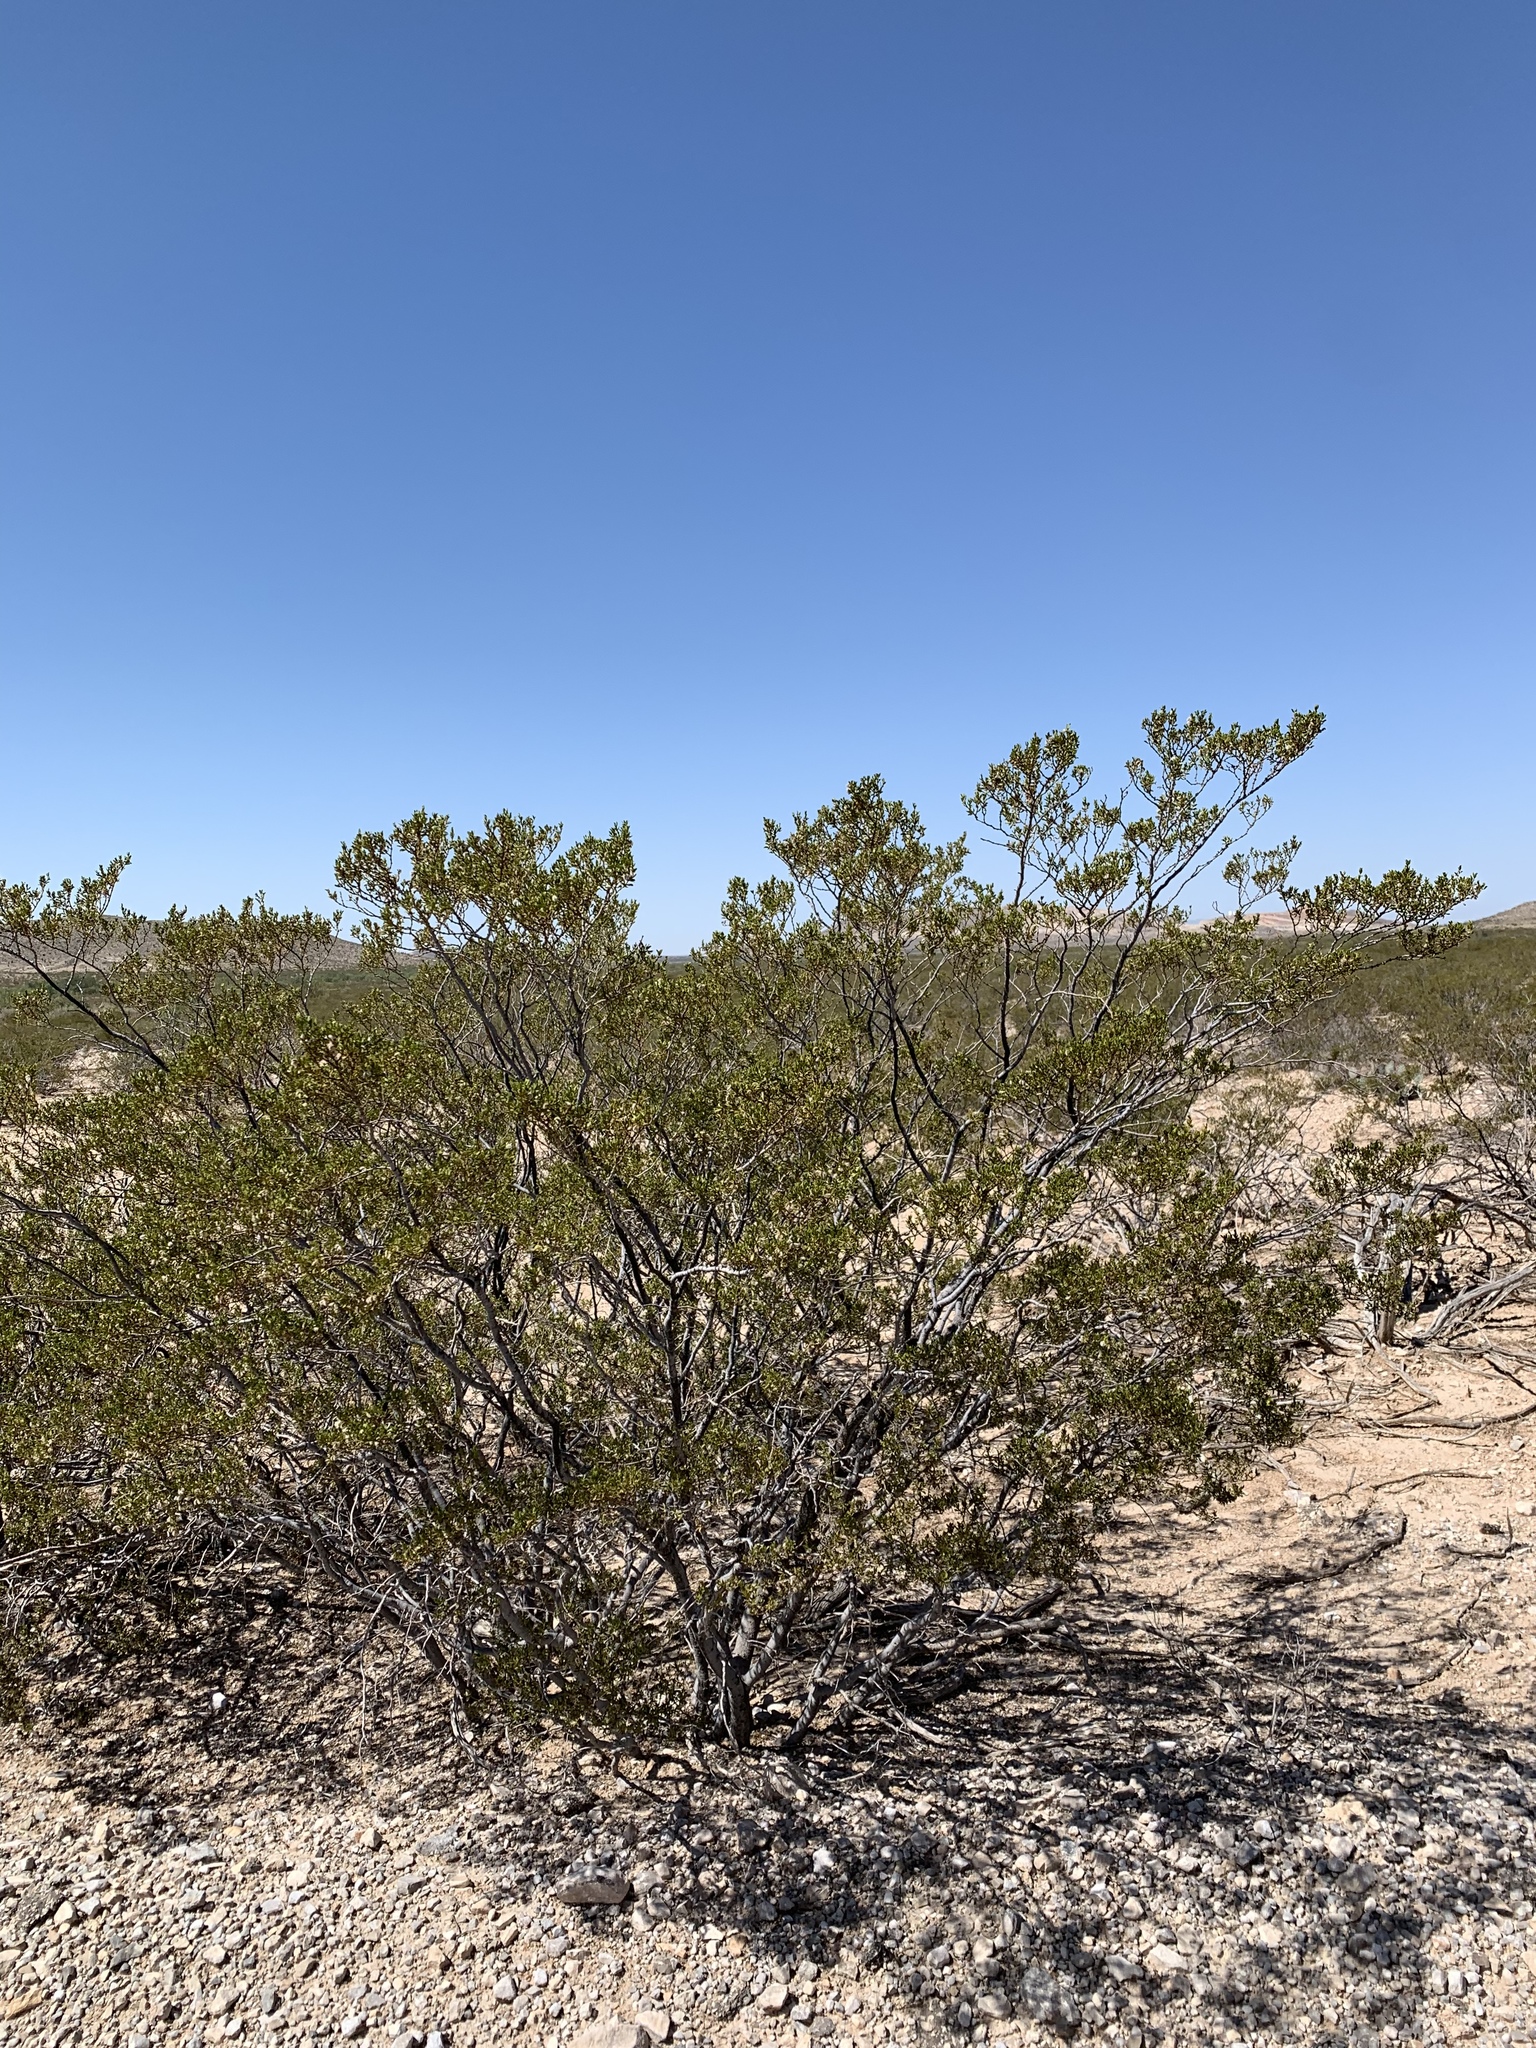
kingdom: Plantae
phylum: Tracheophyta
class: Magnoliopsida
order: Zygophyllales
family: Zygophyllaceae
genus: Larrea
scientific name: Larrea tridentata
